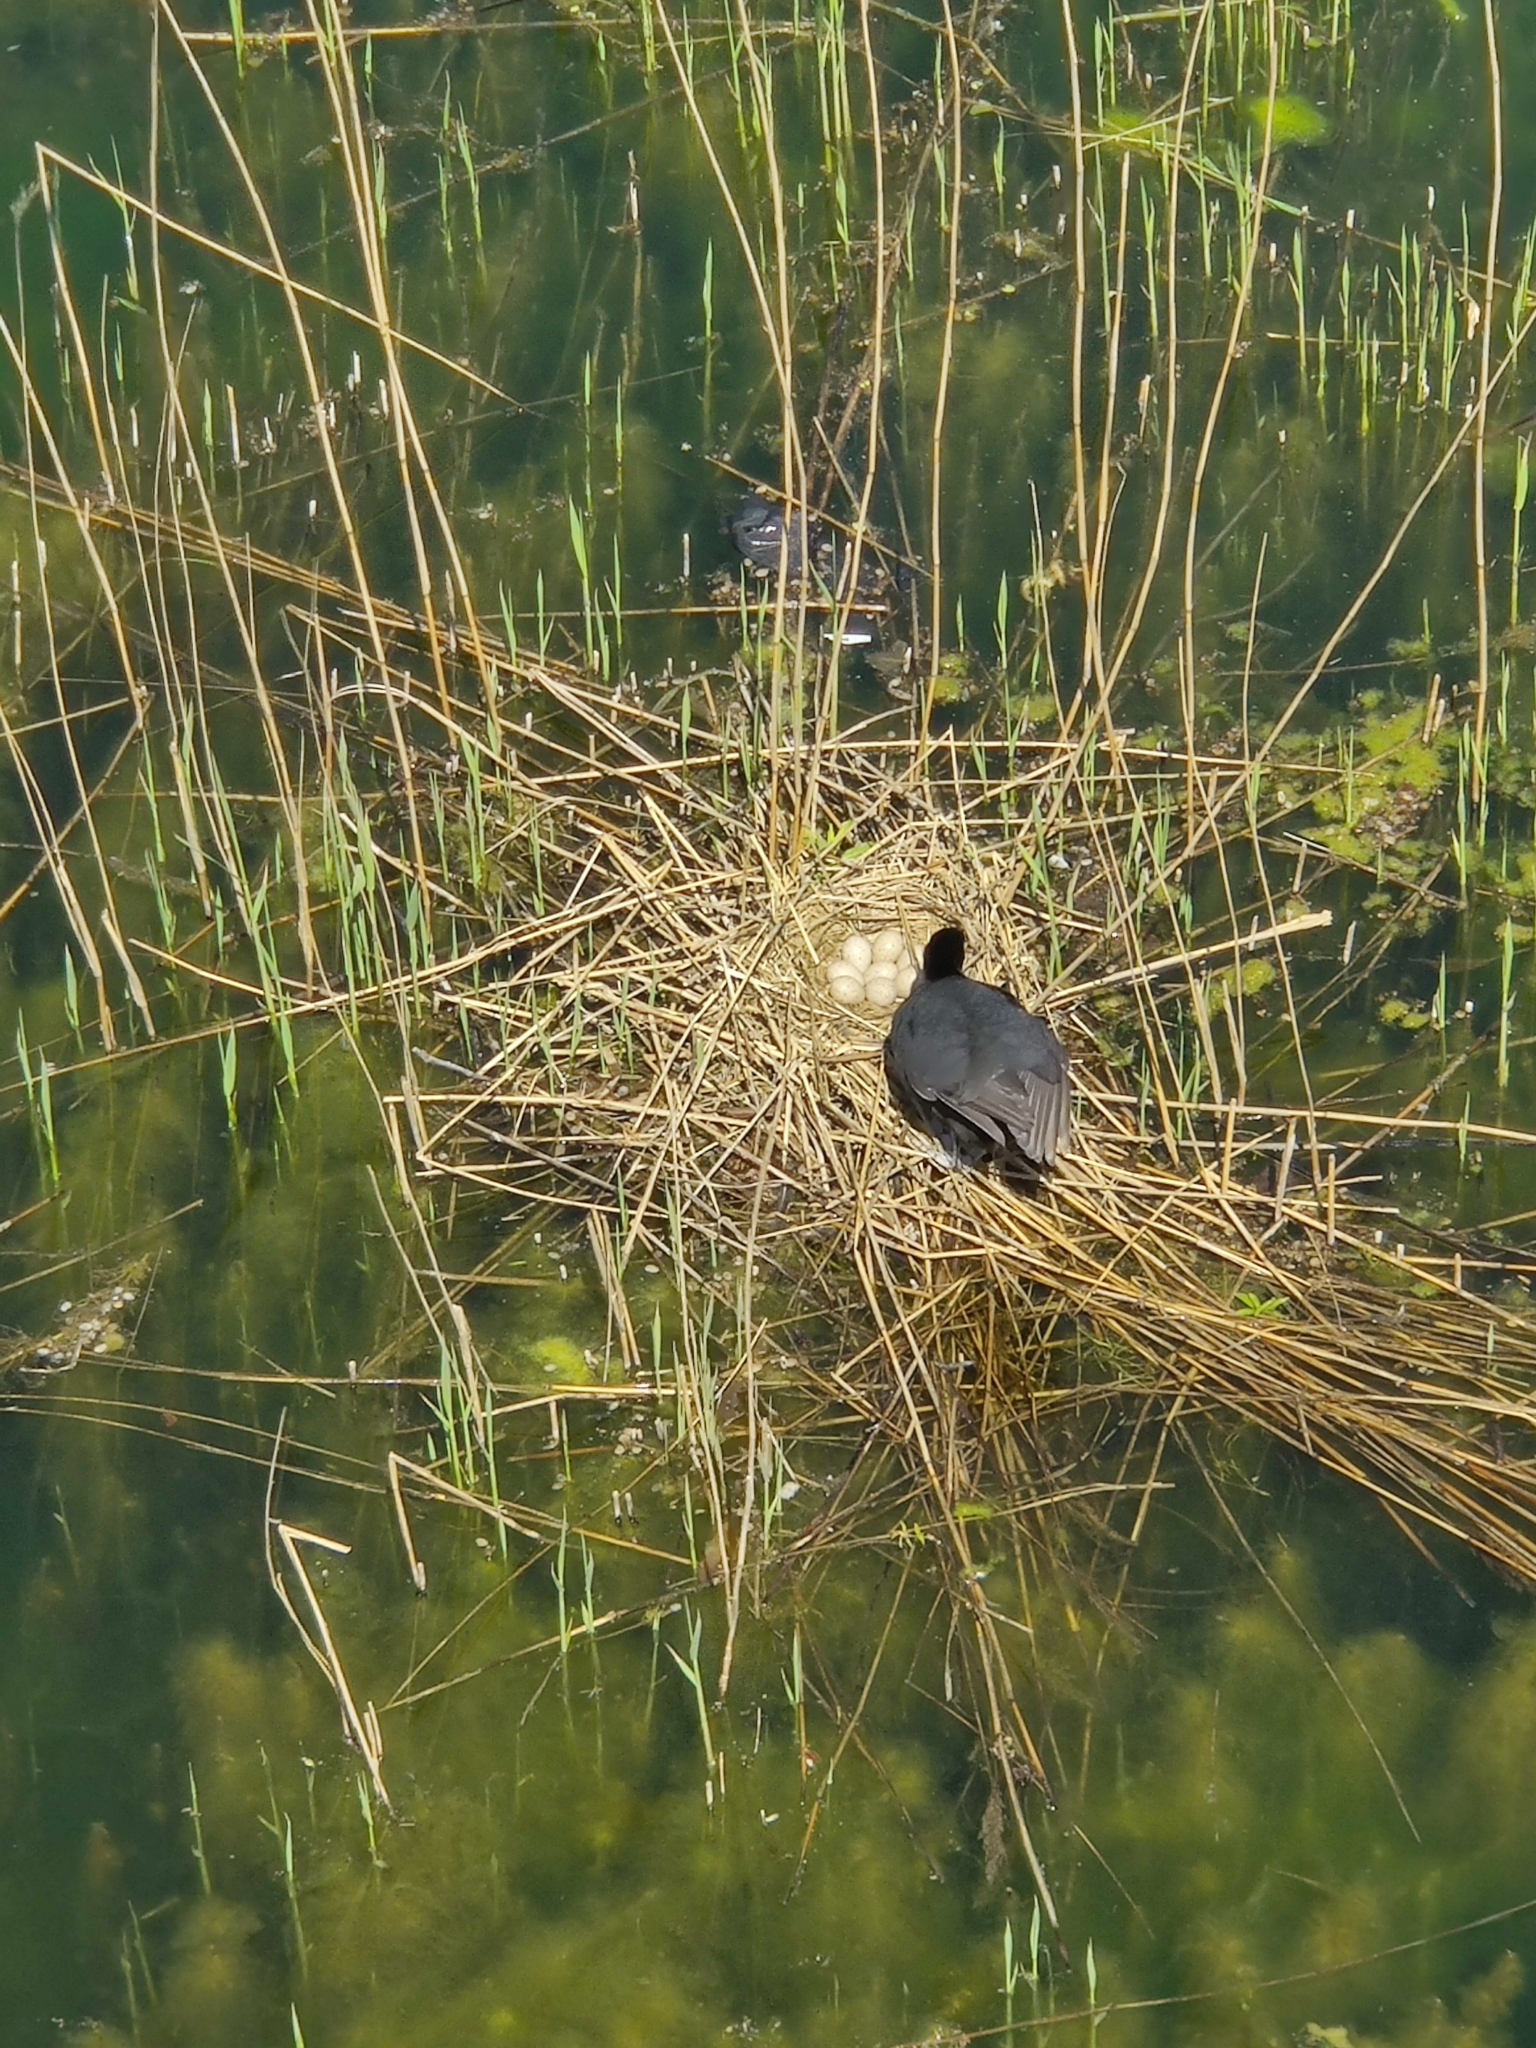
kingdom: Animalia
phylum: Chordata
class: Aves
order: Gruiformes
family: Rallidae
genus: Fulica
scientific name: Fulica atra
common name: Eurasian coot
